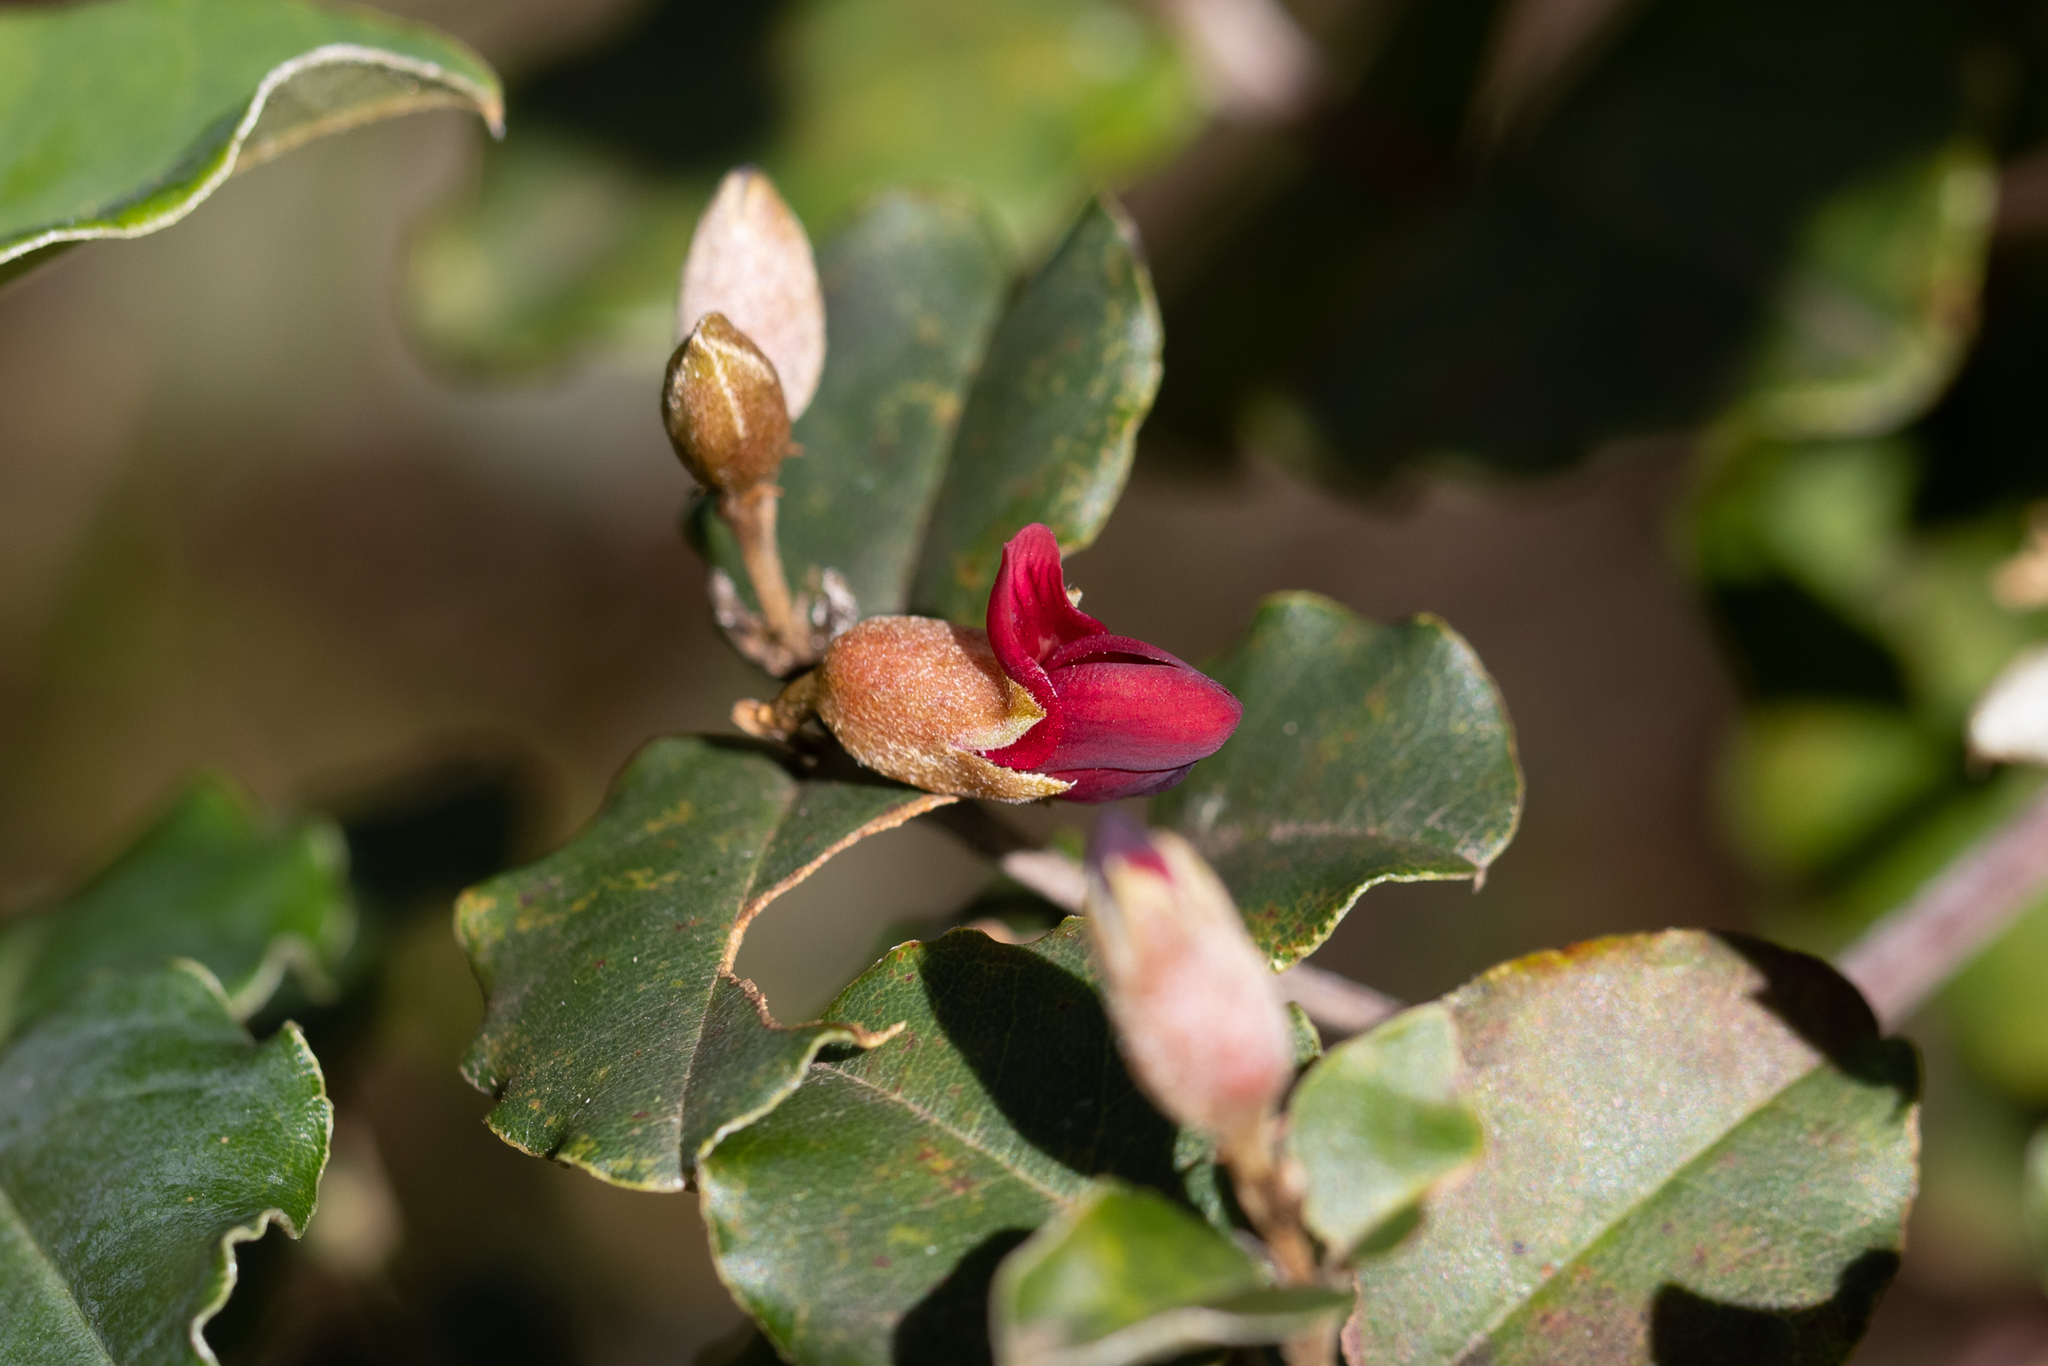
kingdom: Plantae
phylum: Tracheophyta
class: Magnoliopsida
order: Fabales
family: Fabaceae
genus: Gastrolobium
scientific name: Gastrolobium subcordatum
